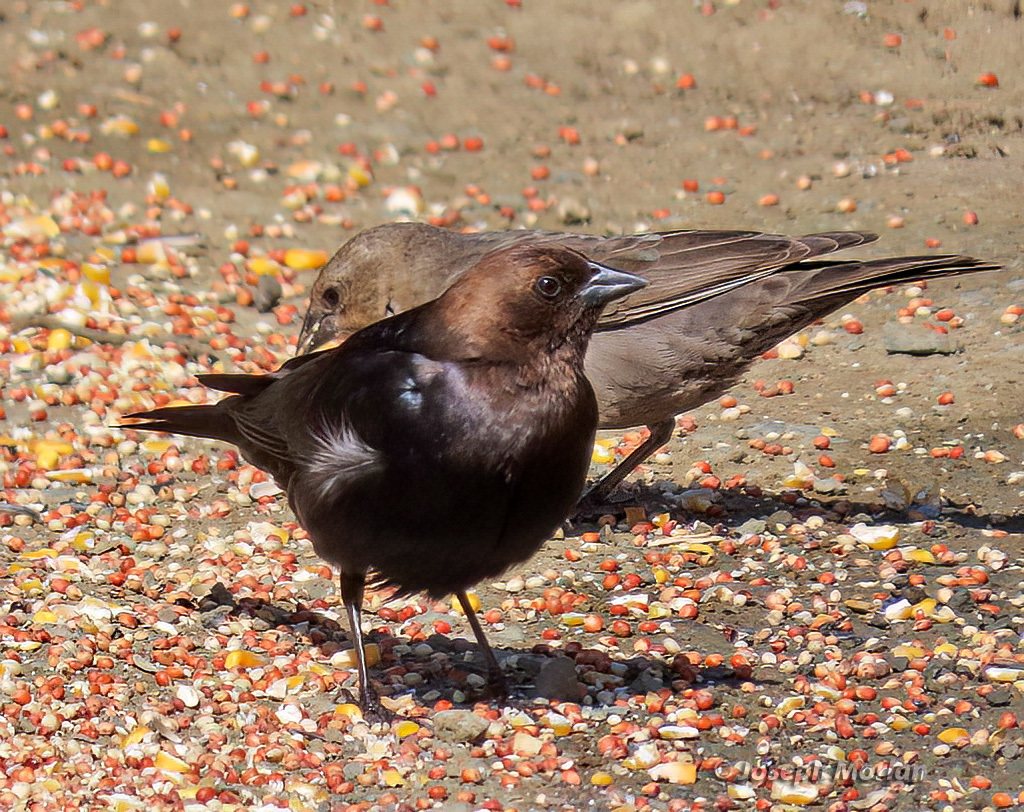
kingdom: Animalia
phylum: Chordata
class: Aves
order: Passeriformes
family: Icteridae
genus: Molothrus
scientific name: Molothrus ater
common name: Brown-headed cowbird
